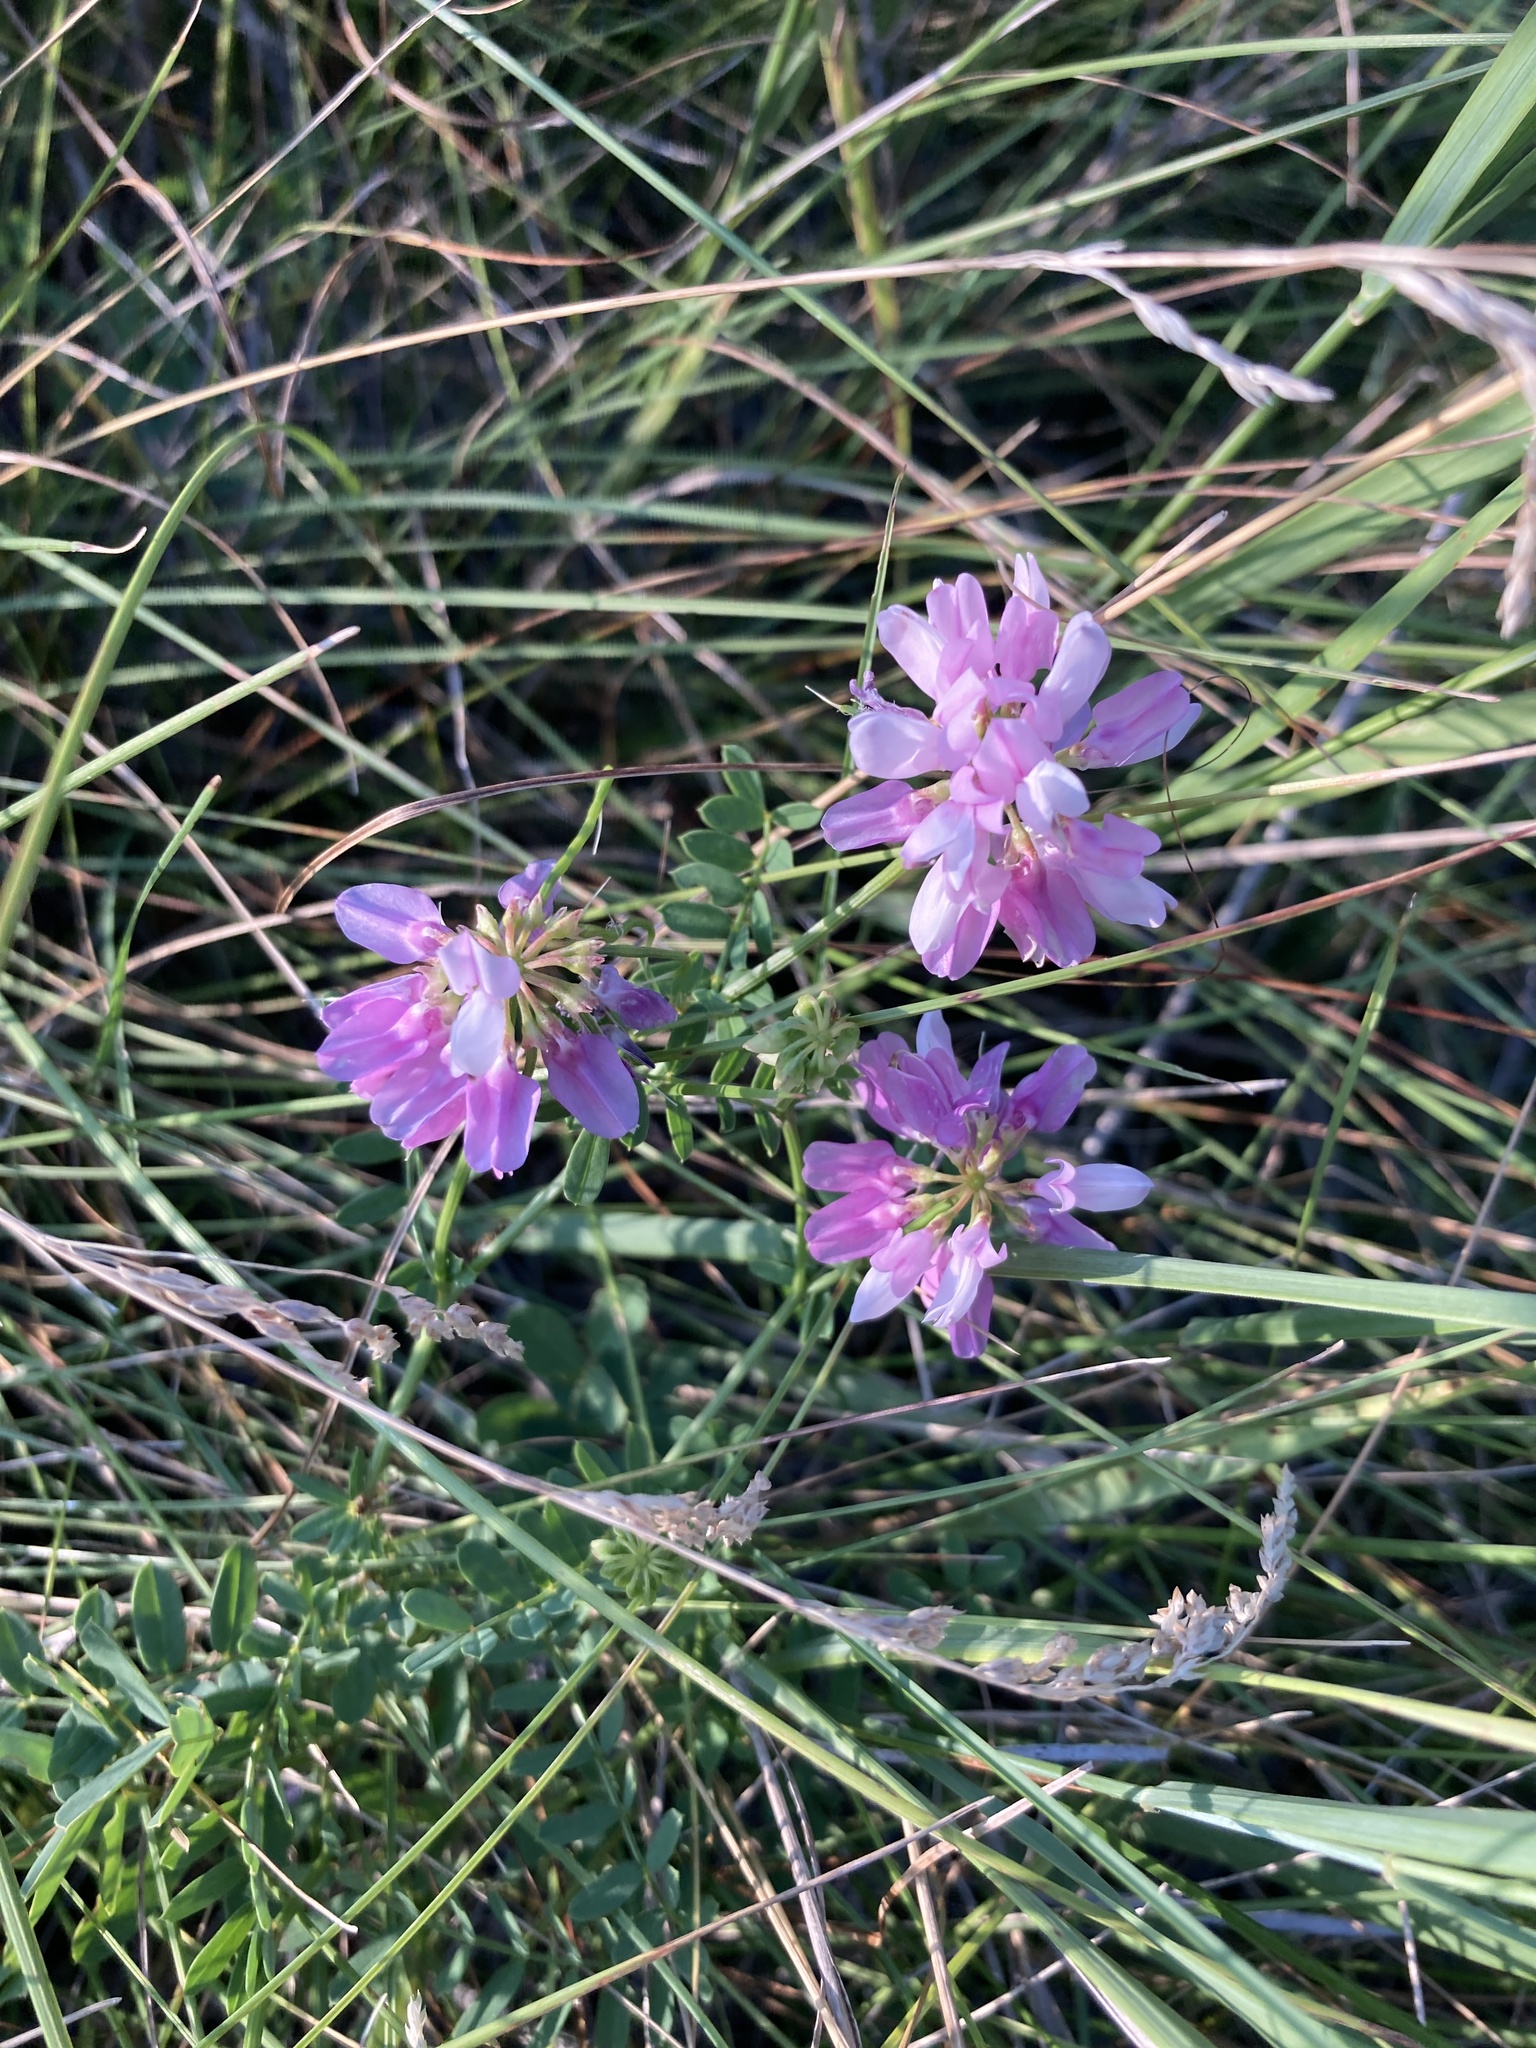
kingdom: Plantae
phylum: Tracheophyta
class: Magnoliopsida
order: Fabales
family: Fabaceae
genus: Coronilla
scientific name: Coronilla varia
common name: Crownvetch
